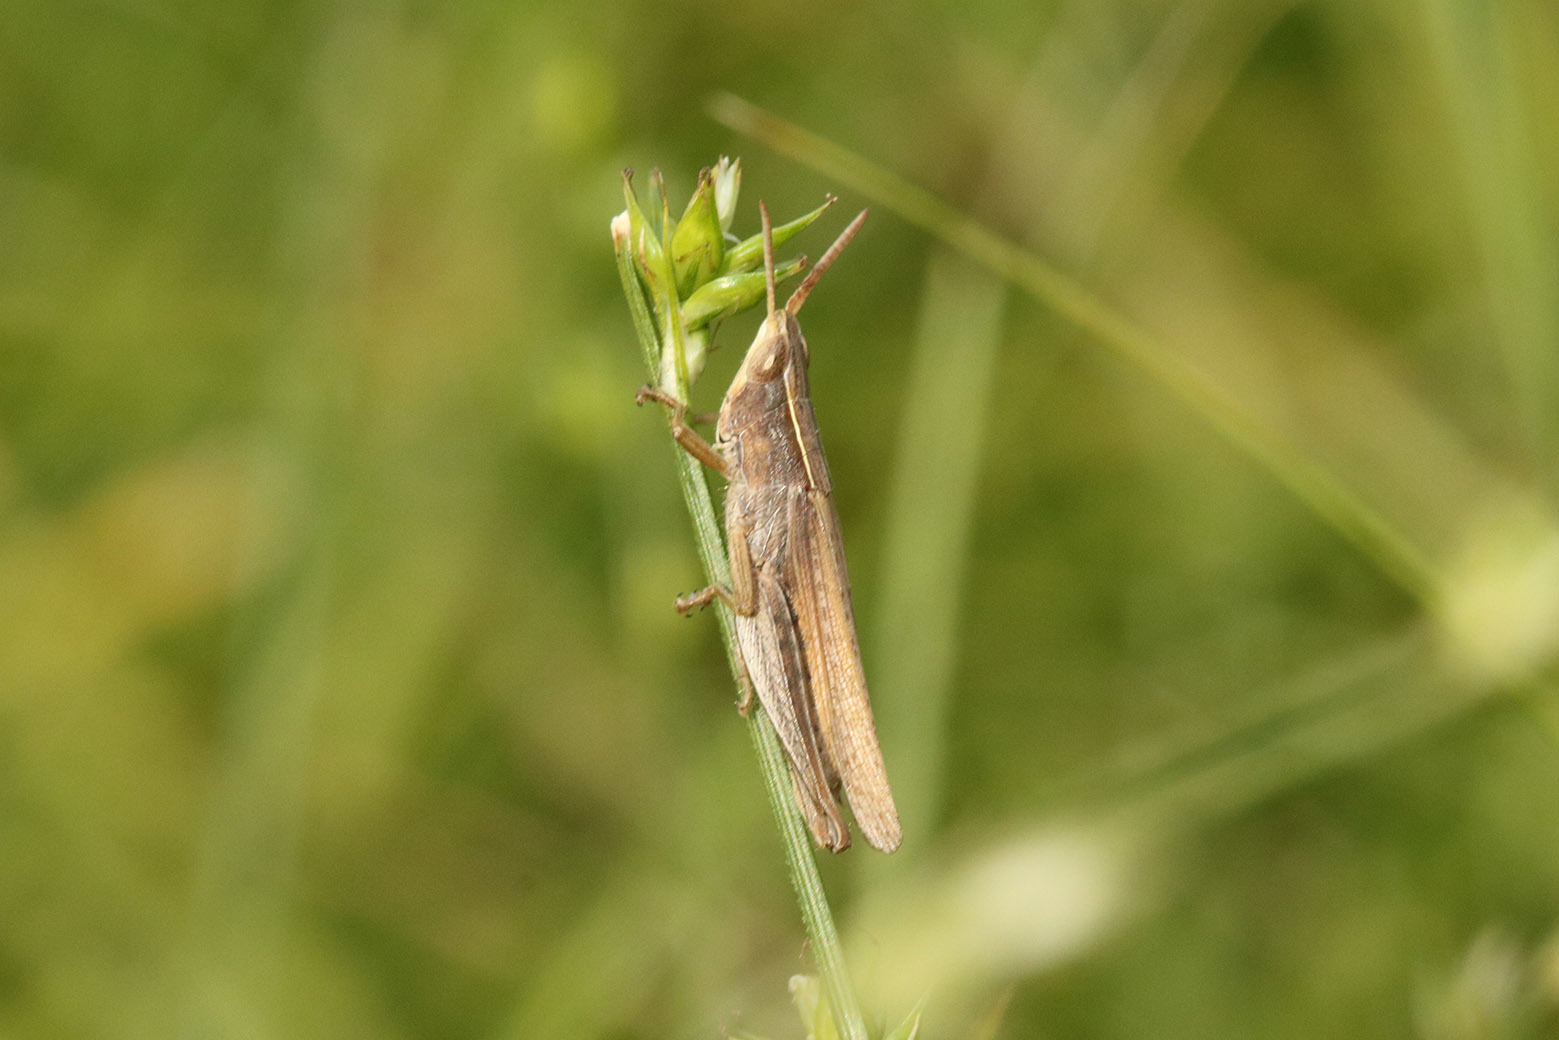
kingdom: Animalia
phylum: Arthropoda
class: Insecta
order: Orthoptera
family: Acrididae
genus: Laplatacris
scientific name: Laplatacris dispar
